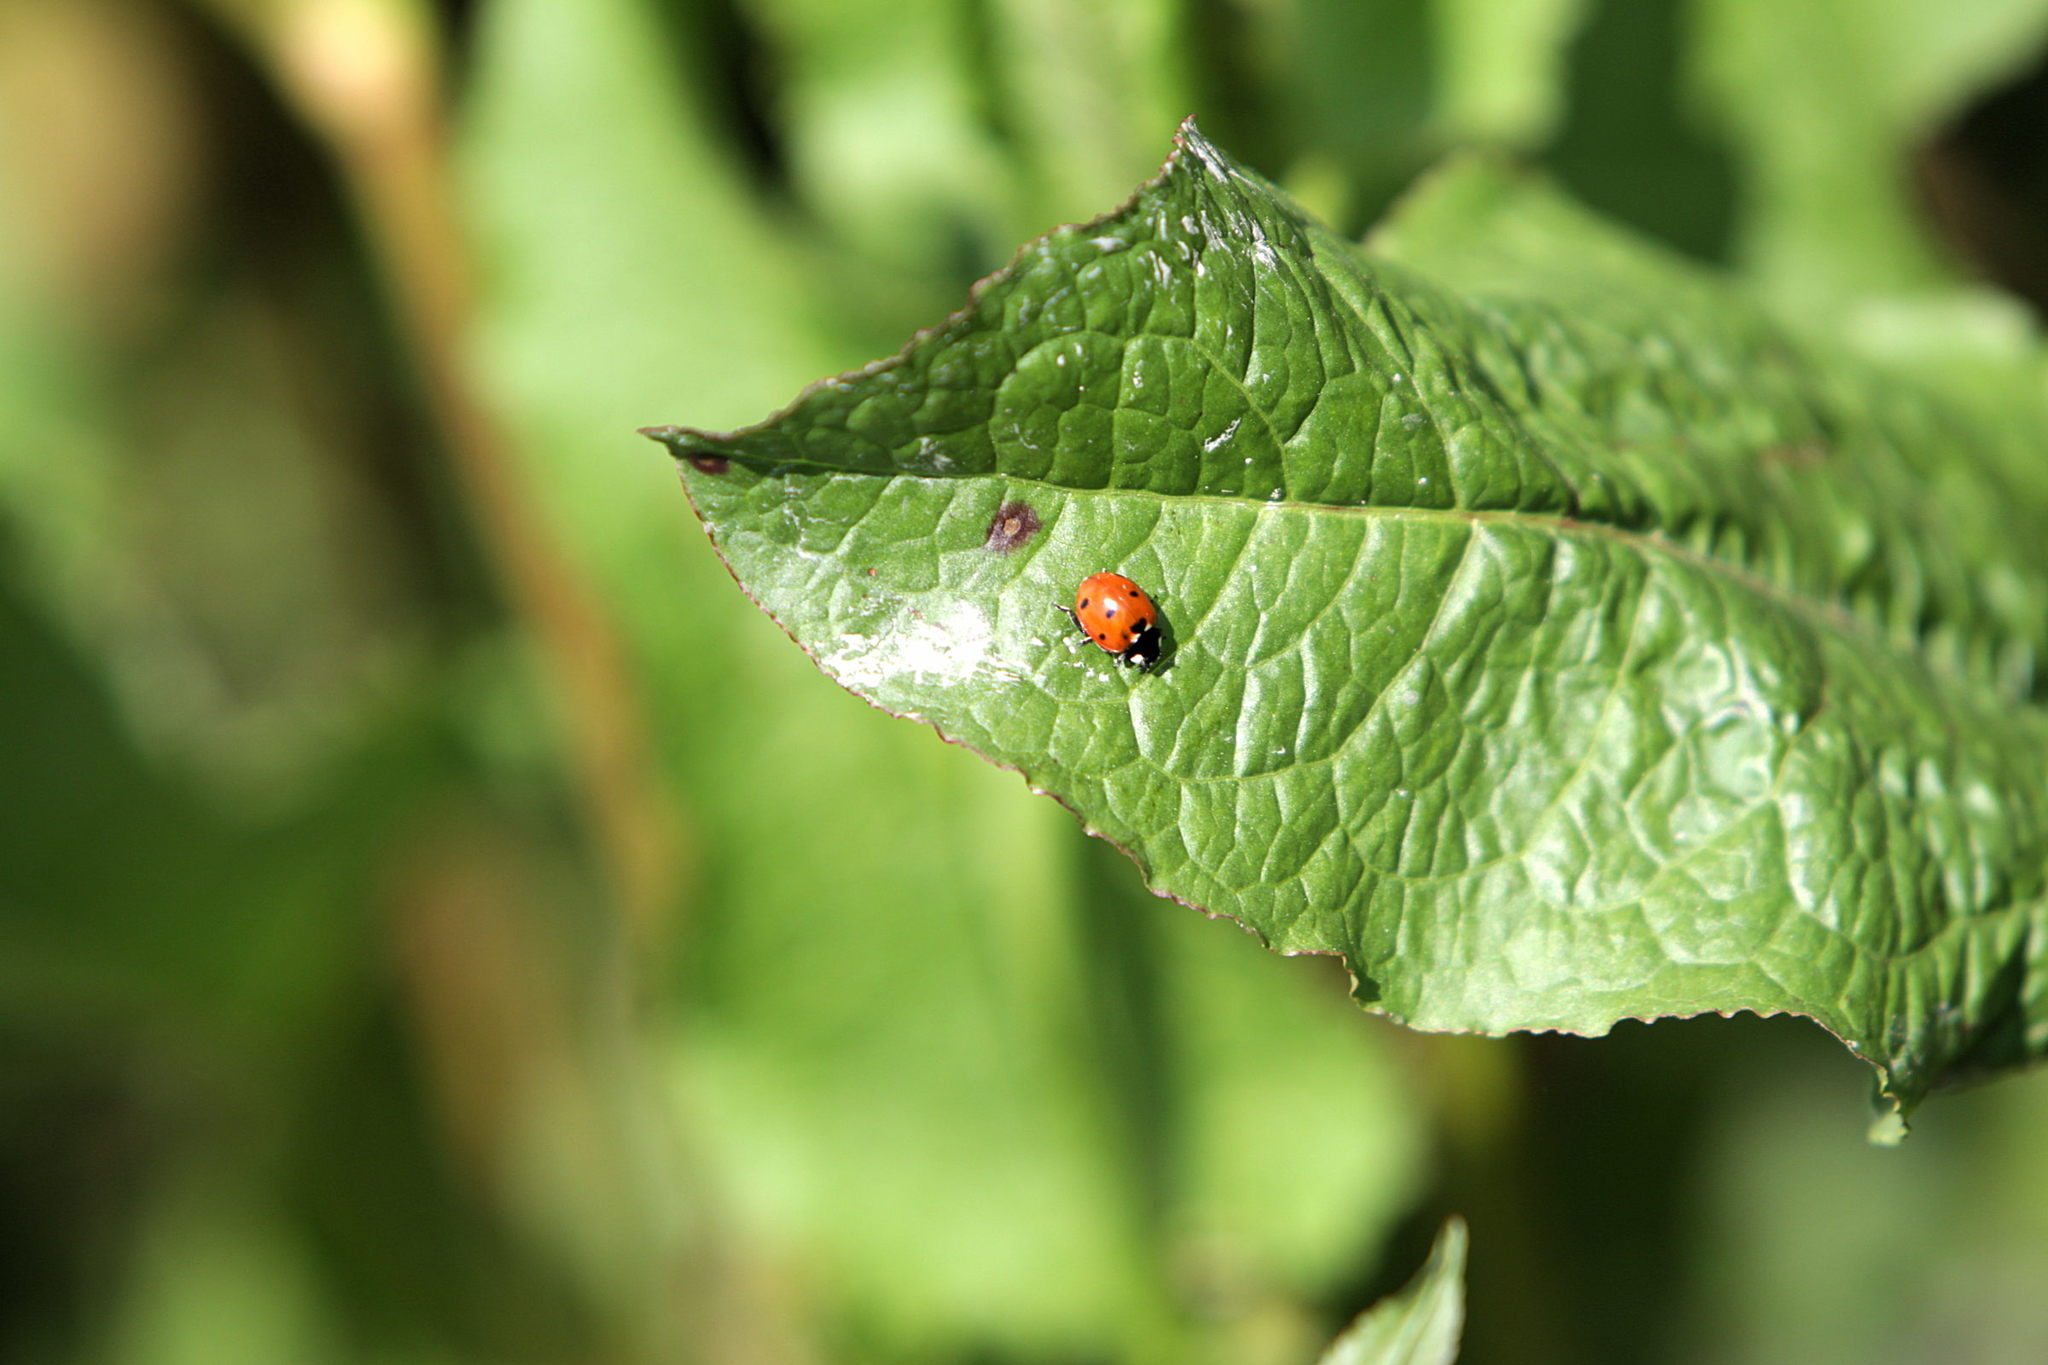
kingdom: Animalia
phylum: Arthropoda
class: Insecta
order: Coleoptera
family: Coccinellidae
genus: Coccinella
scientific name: Coccinella septempunctata
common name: Sevenspotted lady beetle
